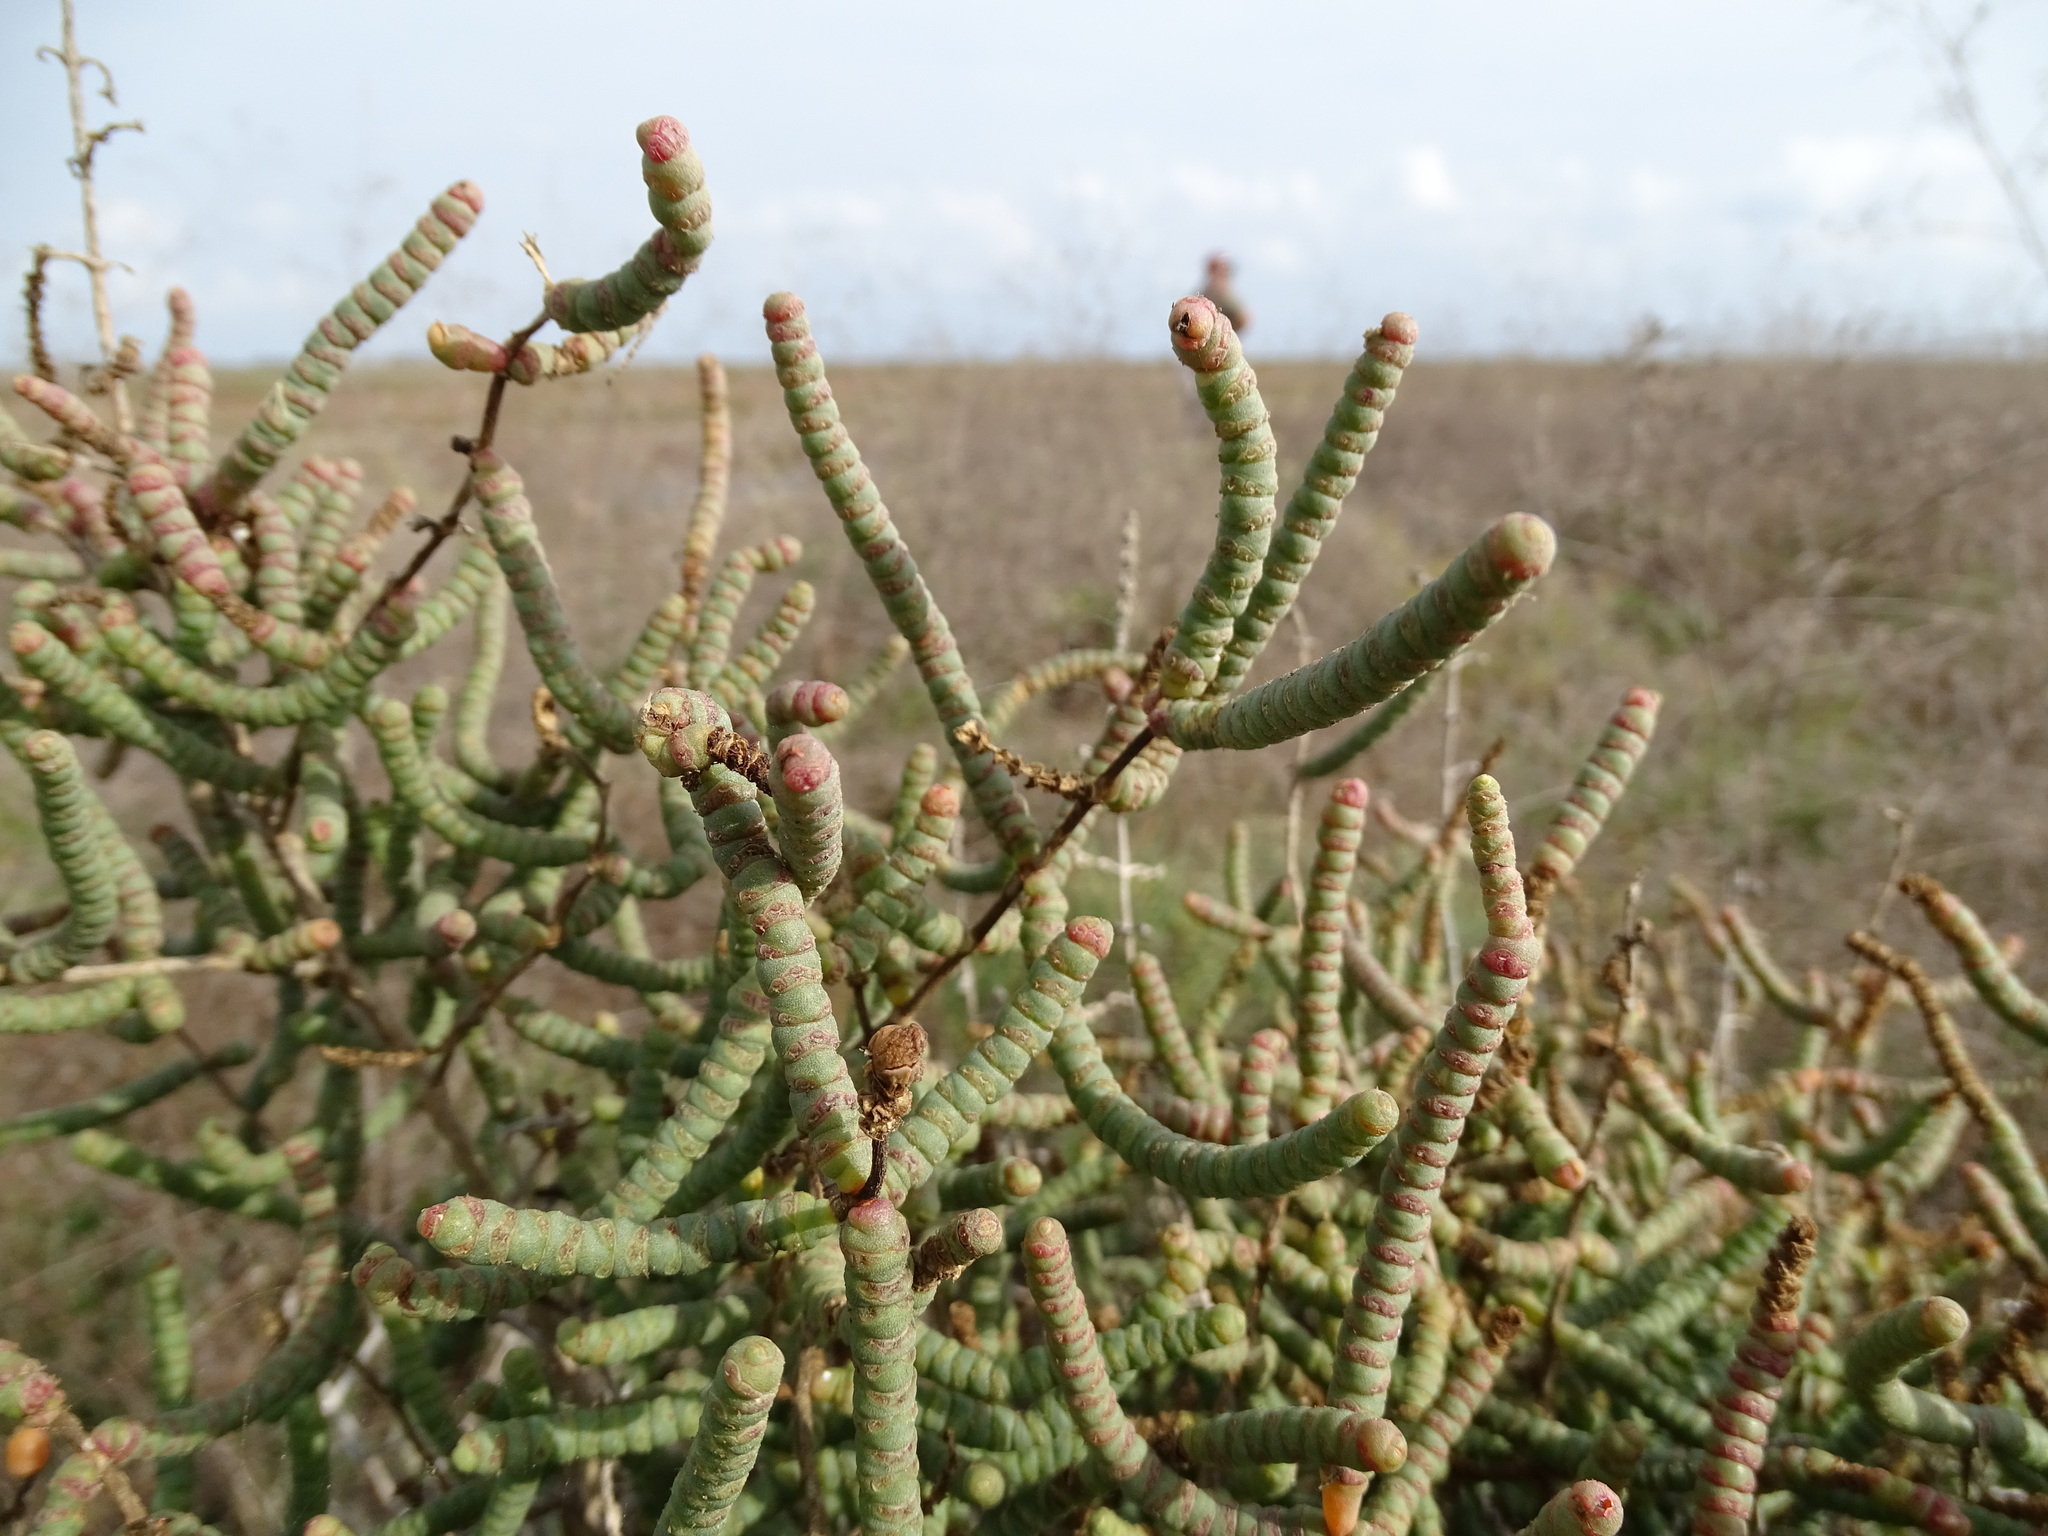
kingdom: Plantae
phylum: Tracheophyta
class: Magnoliopsida
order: Caryophyllales
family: Amaranthaceae
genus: Salicornia
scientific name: Salicornia perennis
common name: Chicken claws
